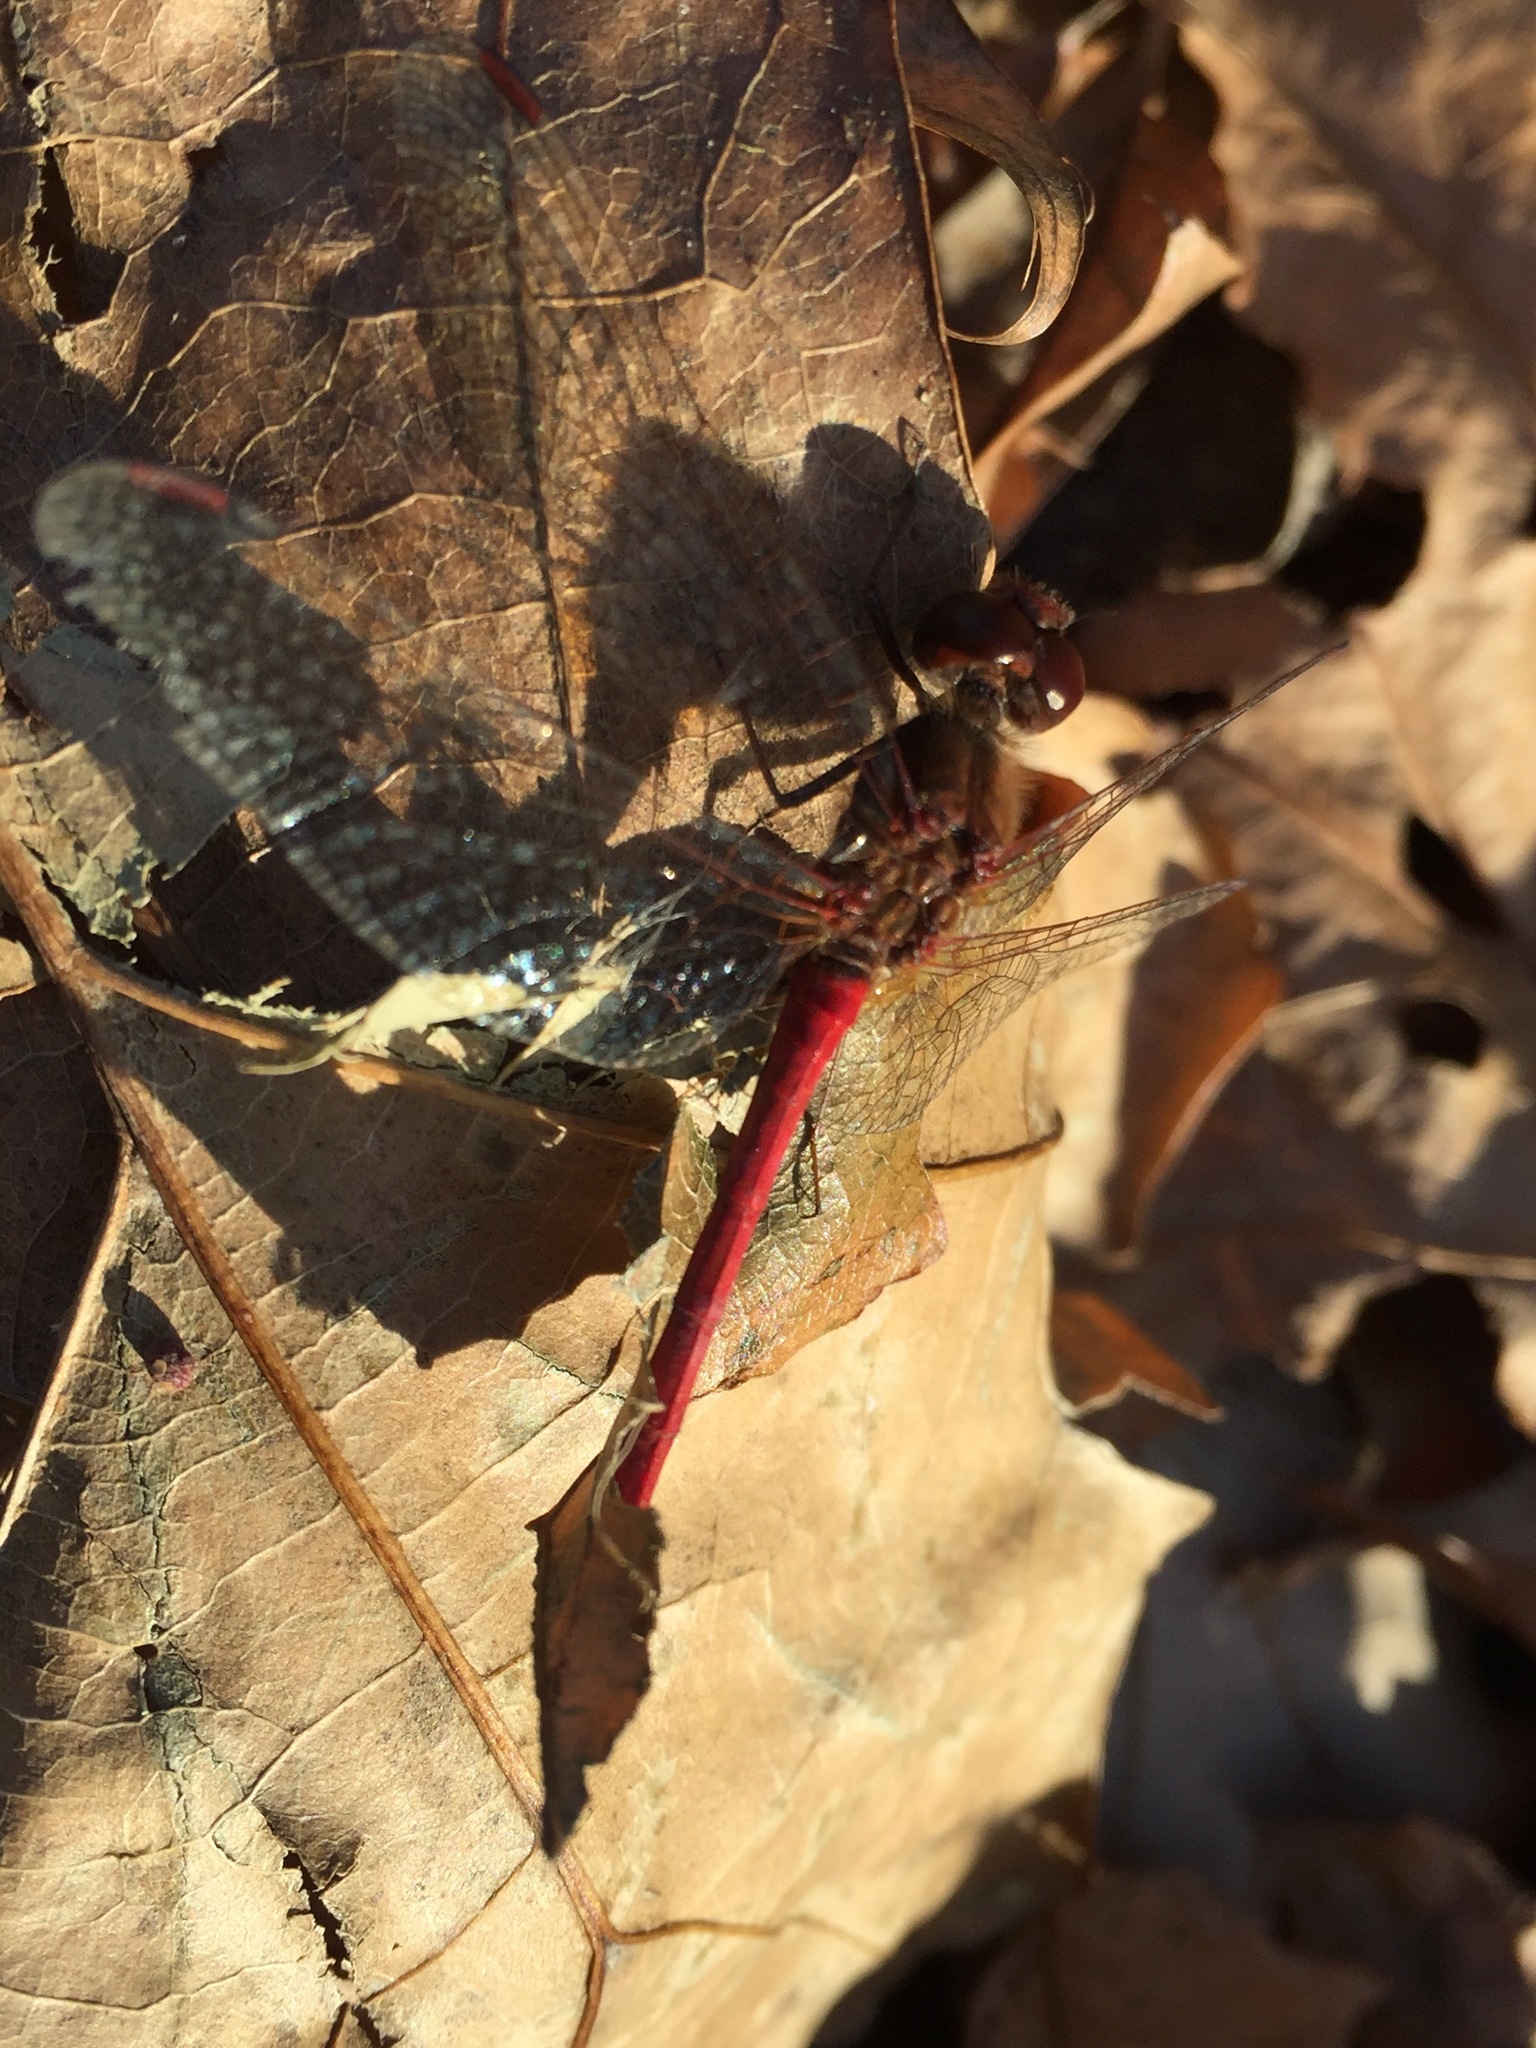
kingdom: Animalia
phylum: Arthropoda
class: Insecta
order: Odonata
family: Libellulidae
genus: Sympetrum
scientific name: Sympetrum vicinum
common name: Autumn meadowhawk
